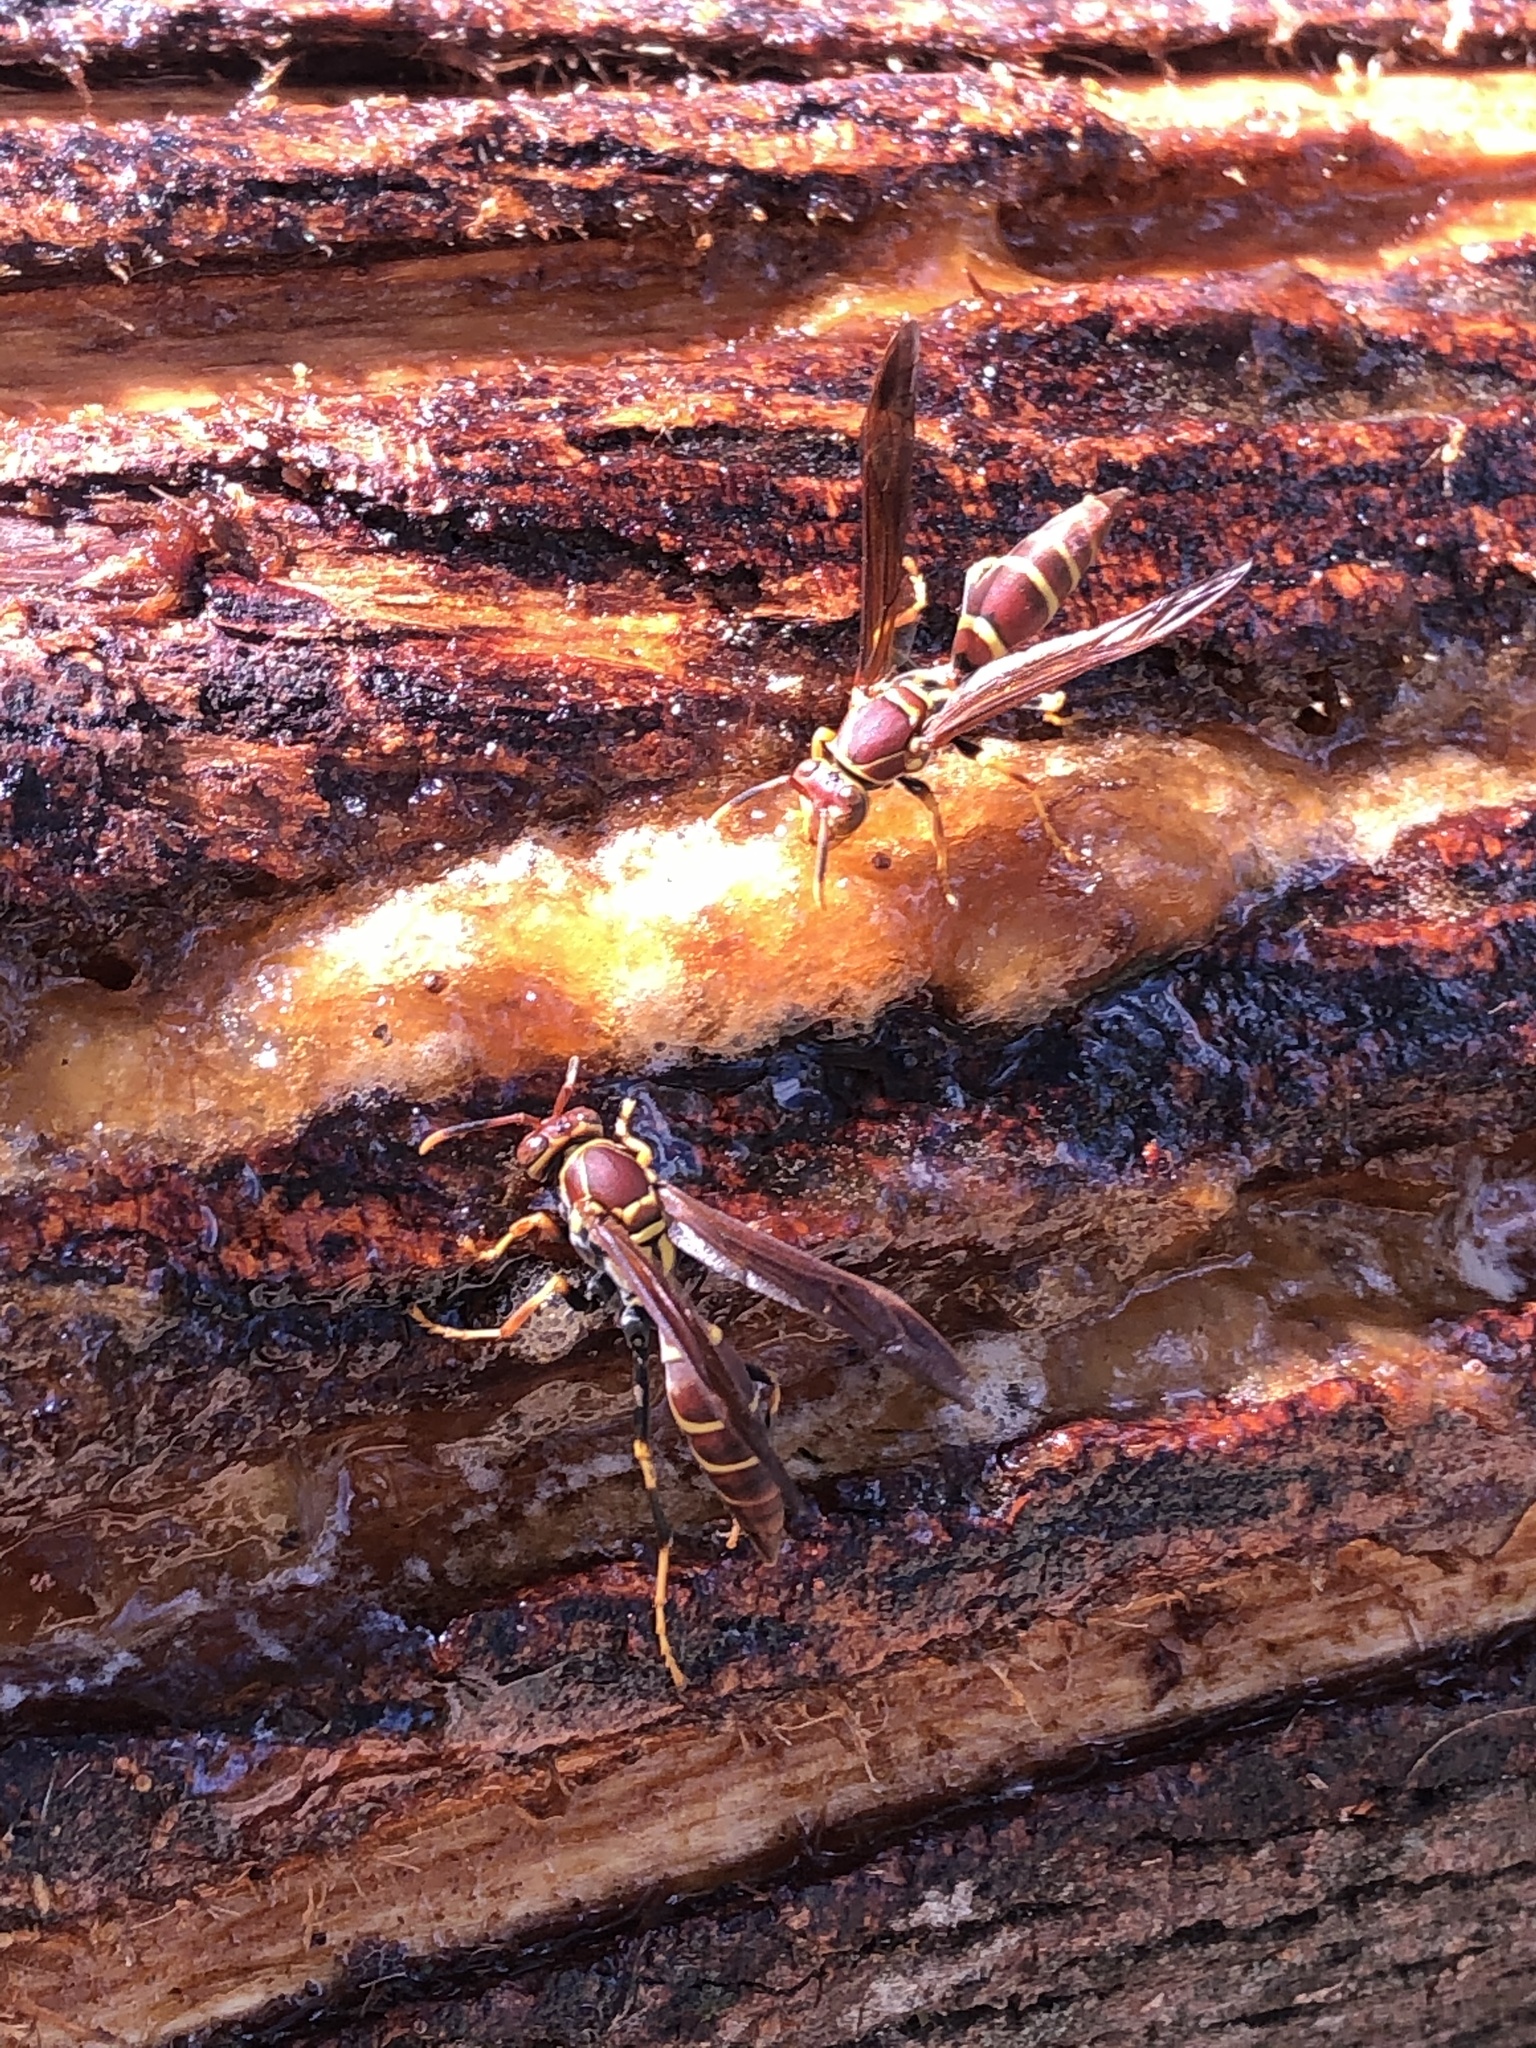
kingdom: Animalia
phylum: Arthropoda
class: Insecta
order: Hymenoptera
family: Eumenidae
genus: Polistes
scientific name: Polistes instabilis
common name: Unstable paper wasp
